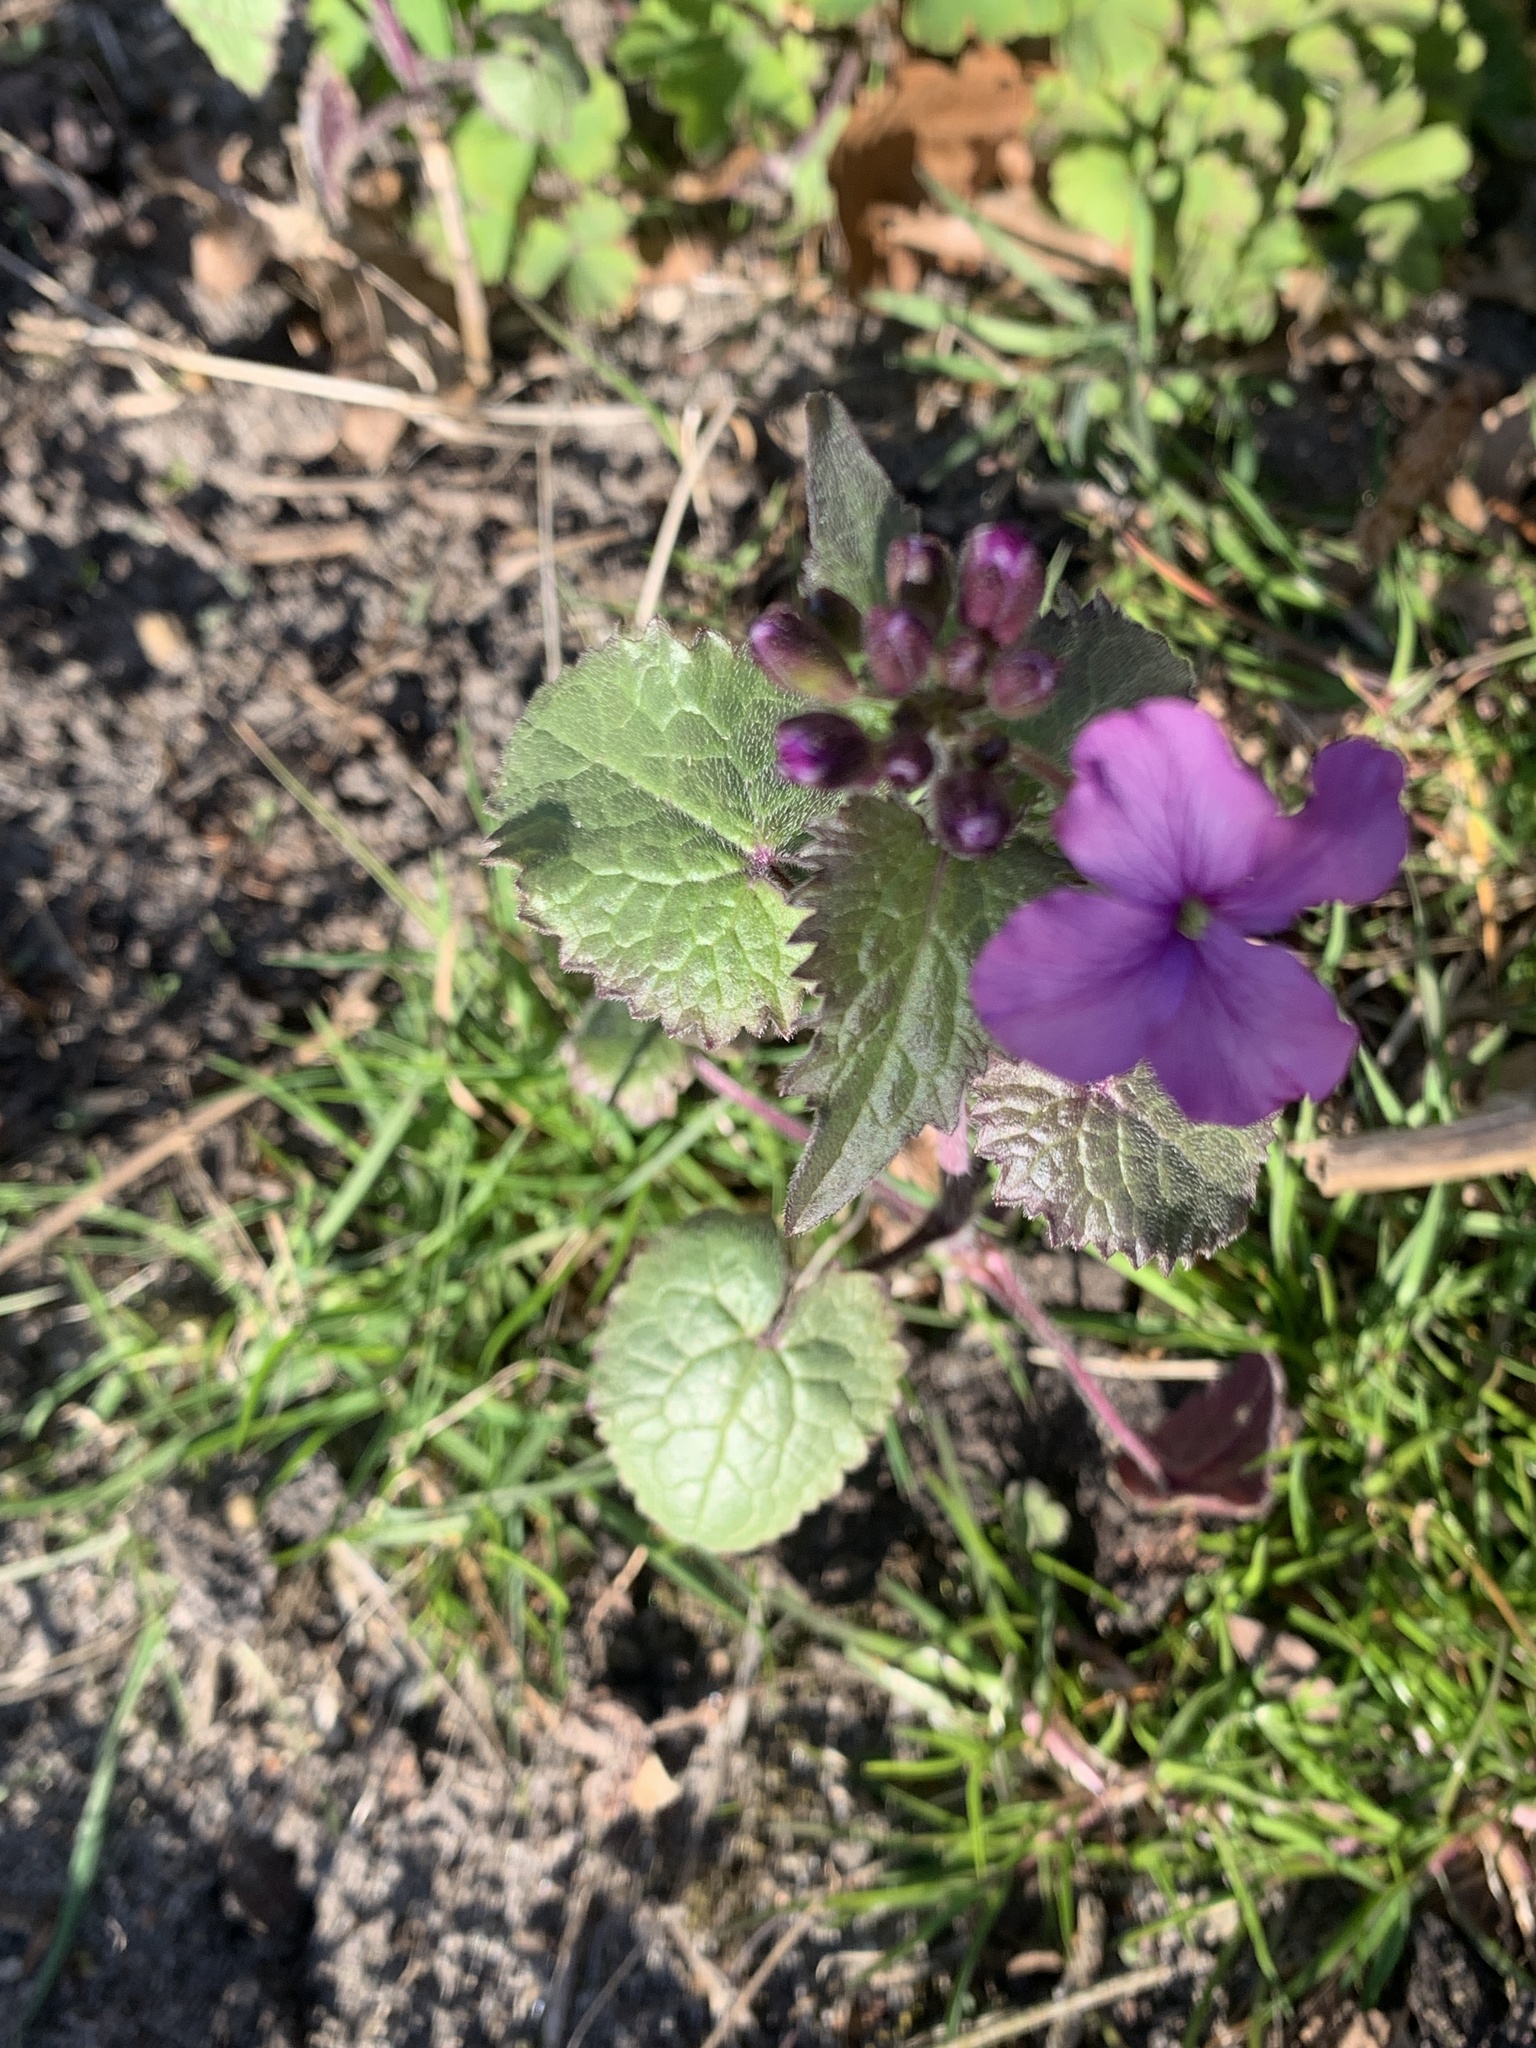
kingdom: Plantae
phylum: Tracheophyta
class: Magnoliopsida
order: Brassicales
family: Brassicaceae
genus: Lunaria
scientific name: Lunaria annua
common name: Honesty
